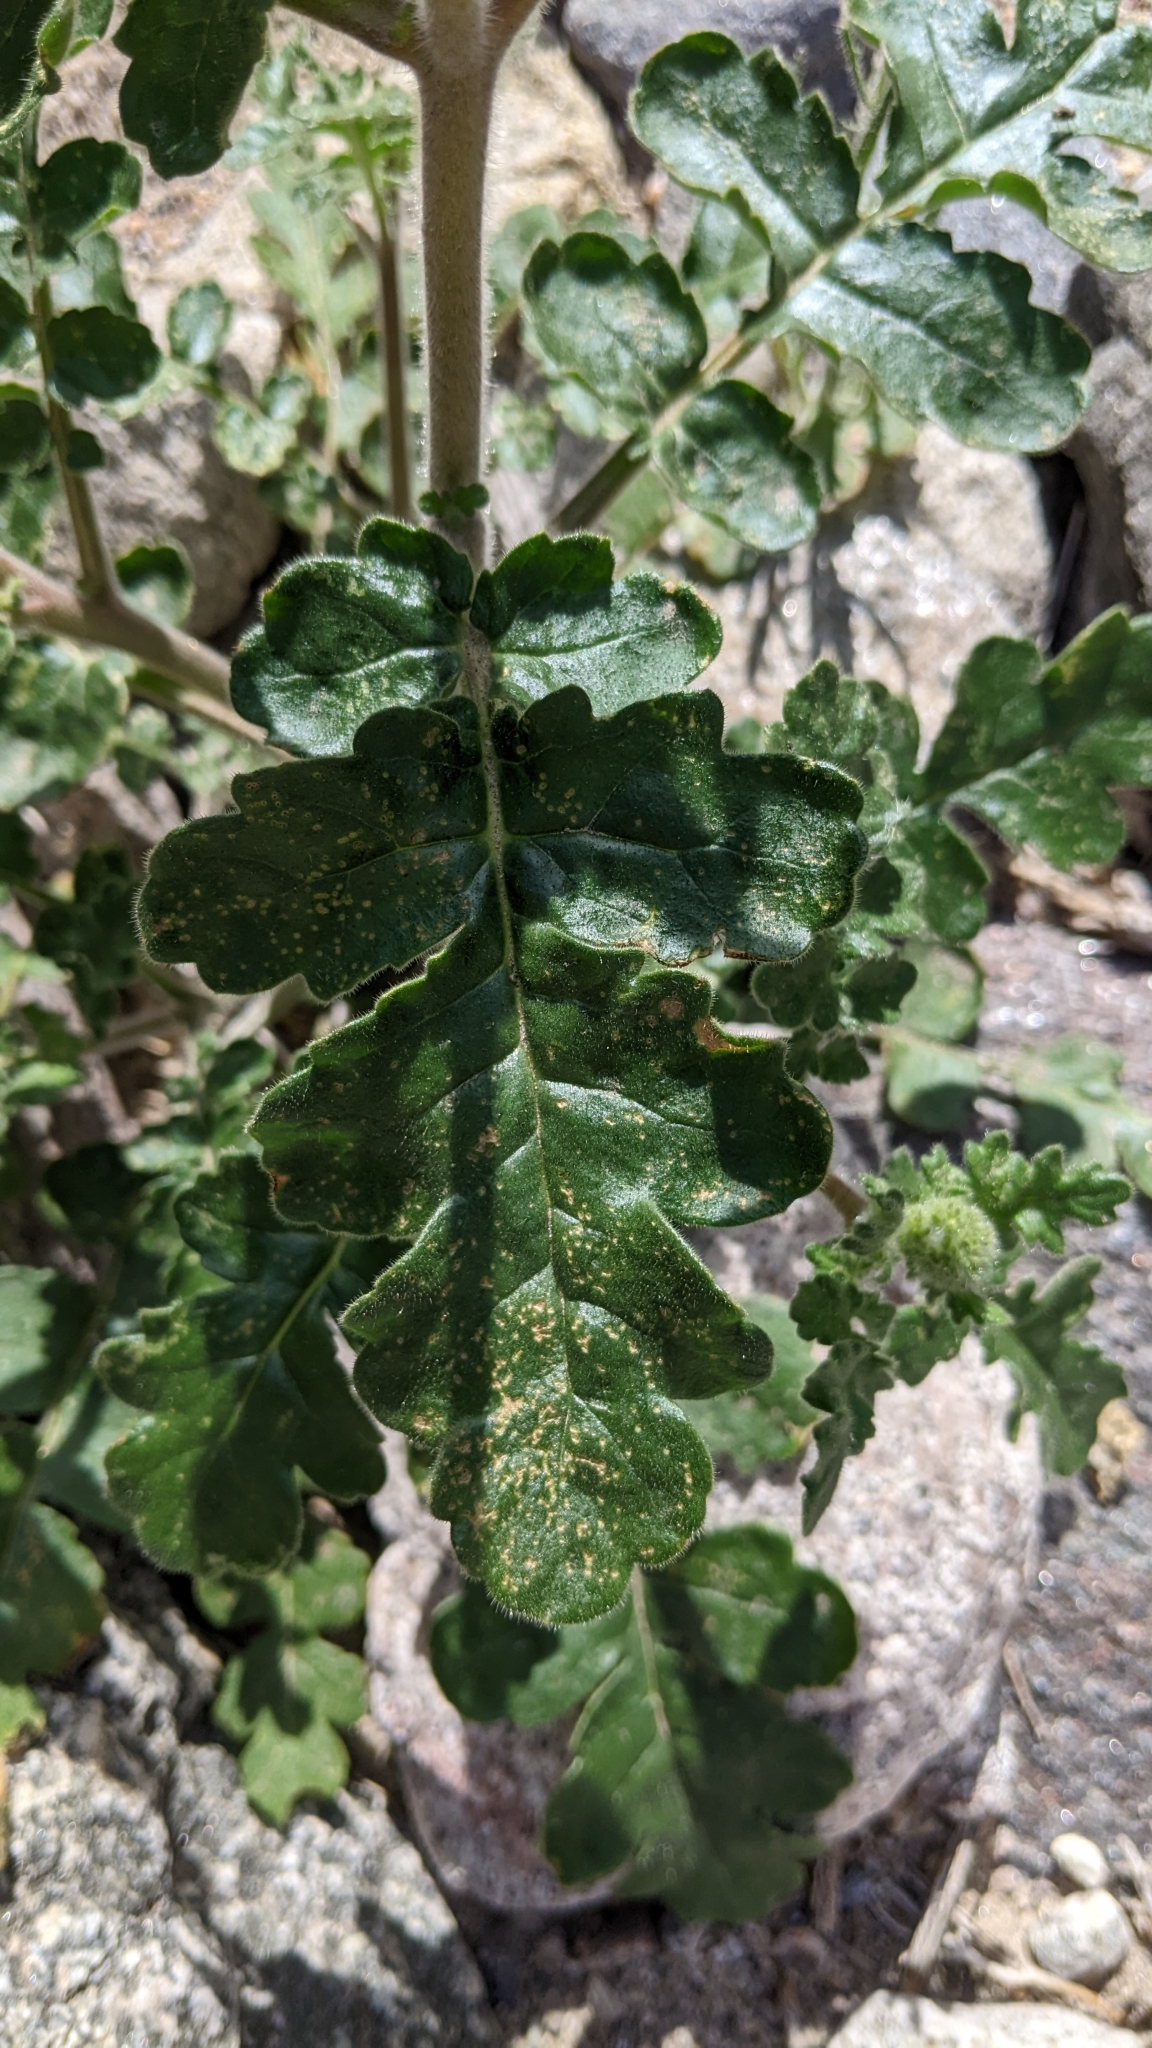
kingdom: Plantae
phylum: Tracheophyta
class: Magnoliopsida
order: Boraginales
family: Hydrophyllaceae
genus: Phacelia
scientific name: Phacelia crenulata
